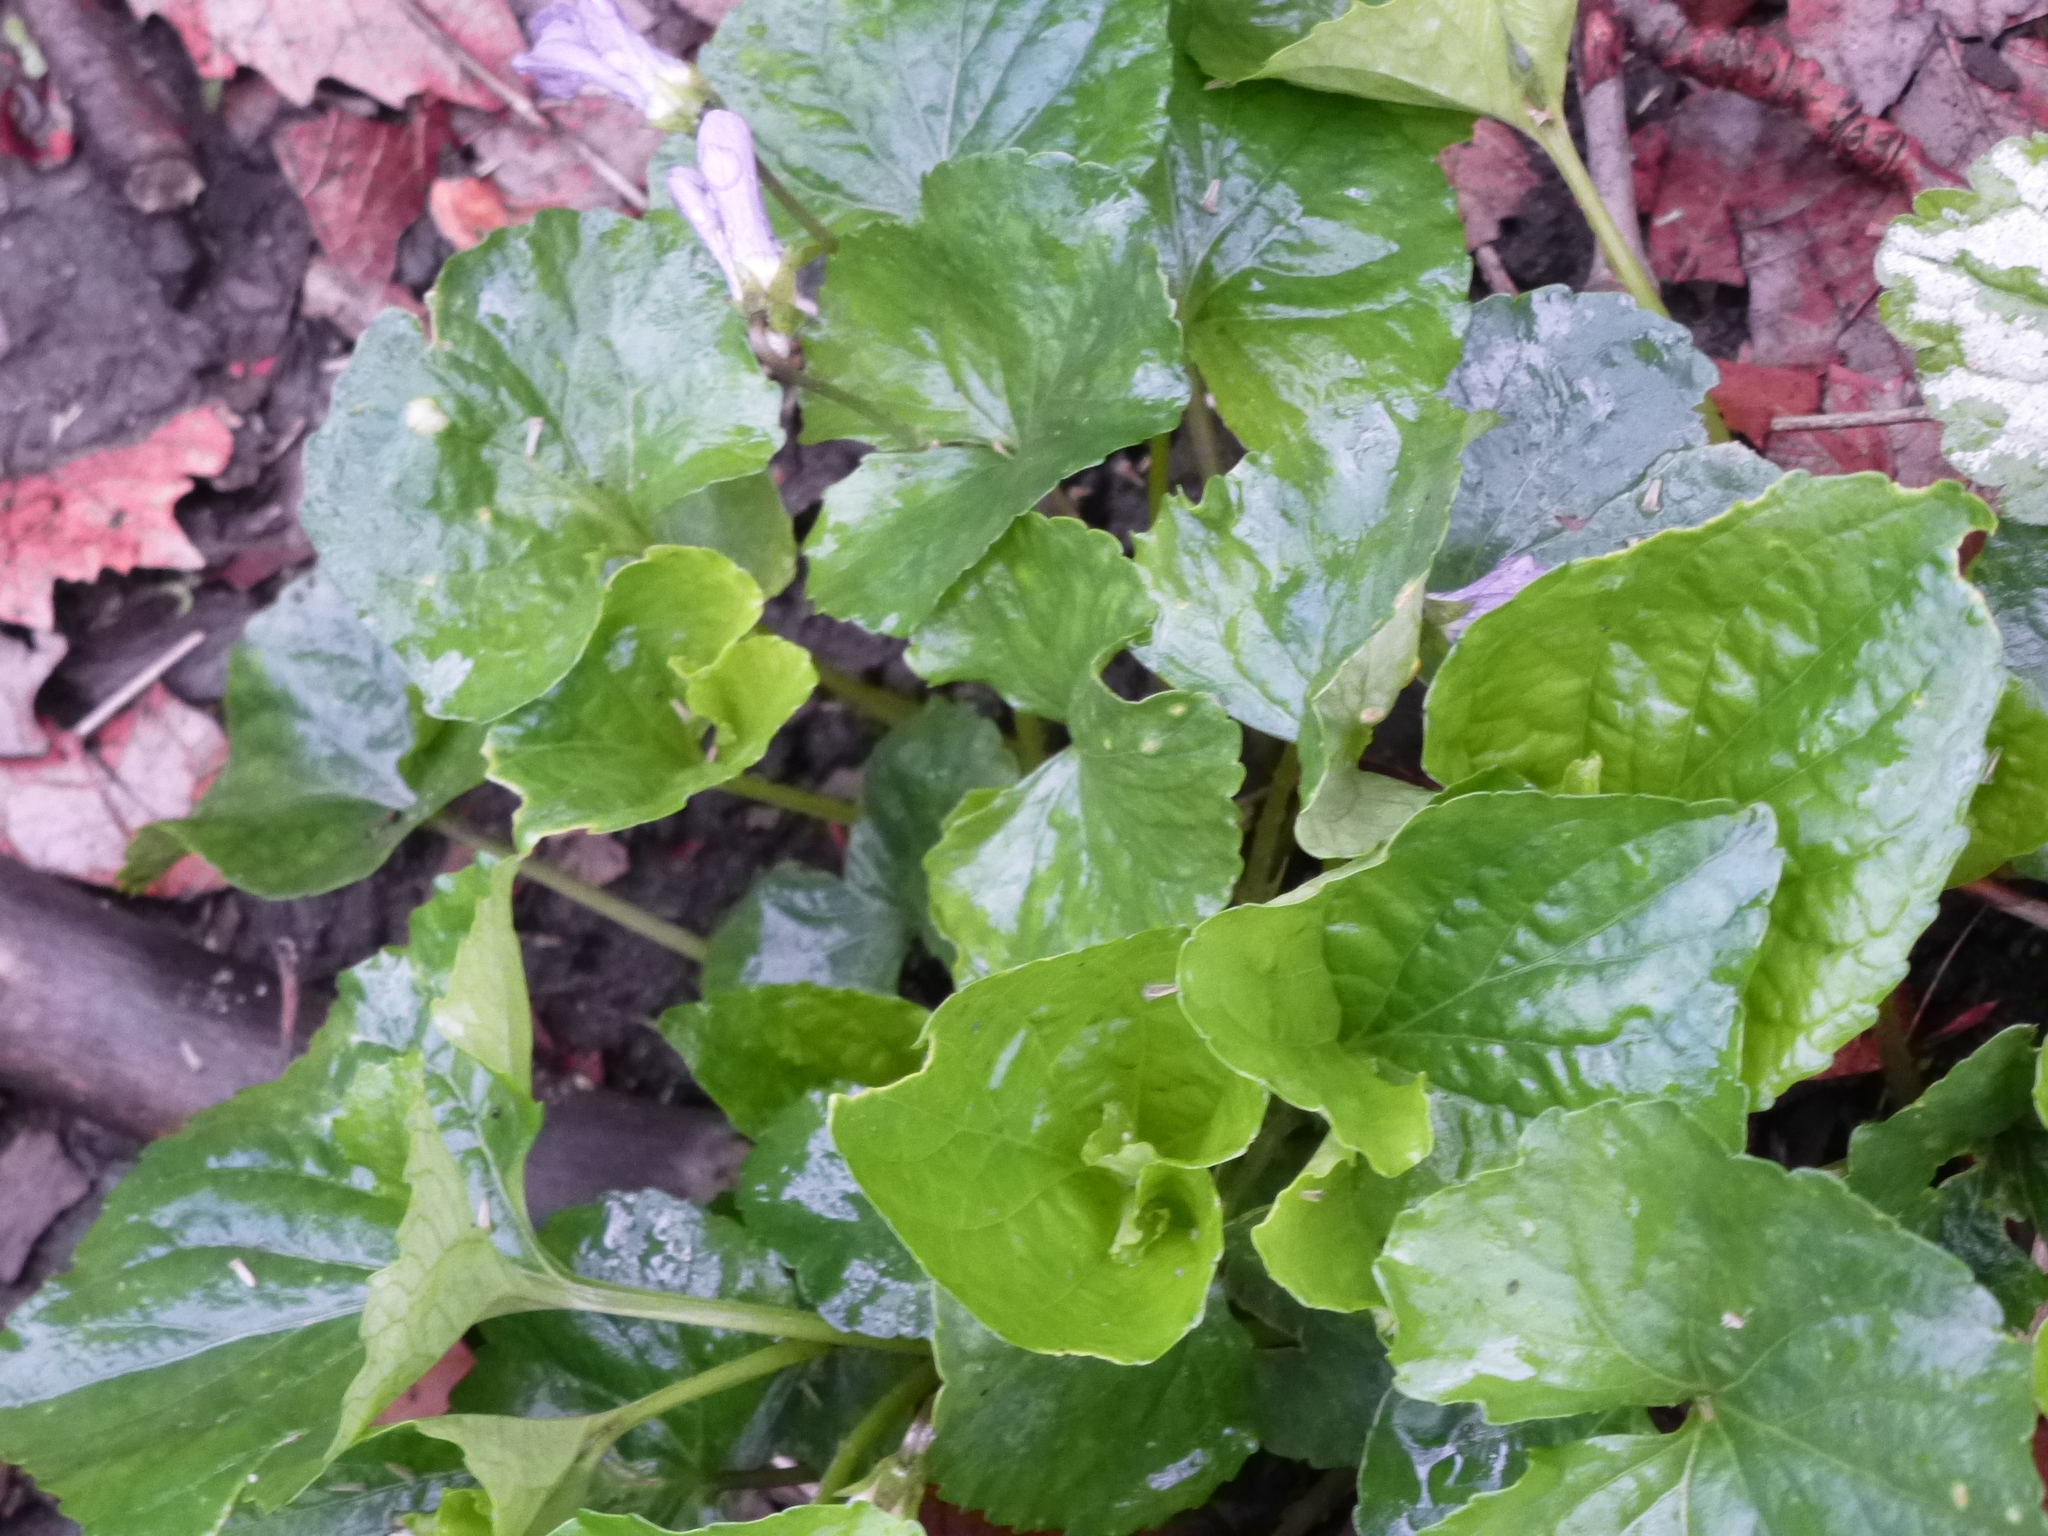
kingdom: Plantae
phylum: Tracheophyta
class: Magnoliopsida
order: Malpighiales
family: Violaceae
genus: Viola
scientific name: Viola sororia
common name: Dooryard violet
